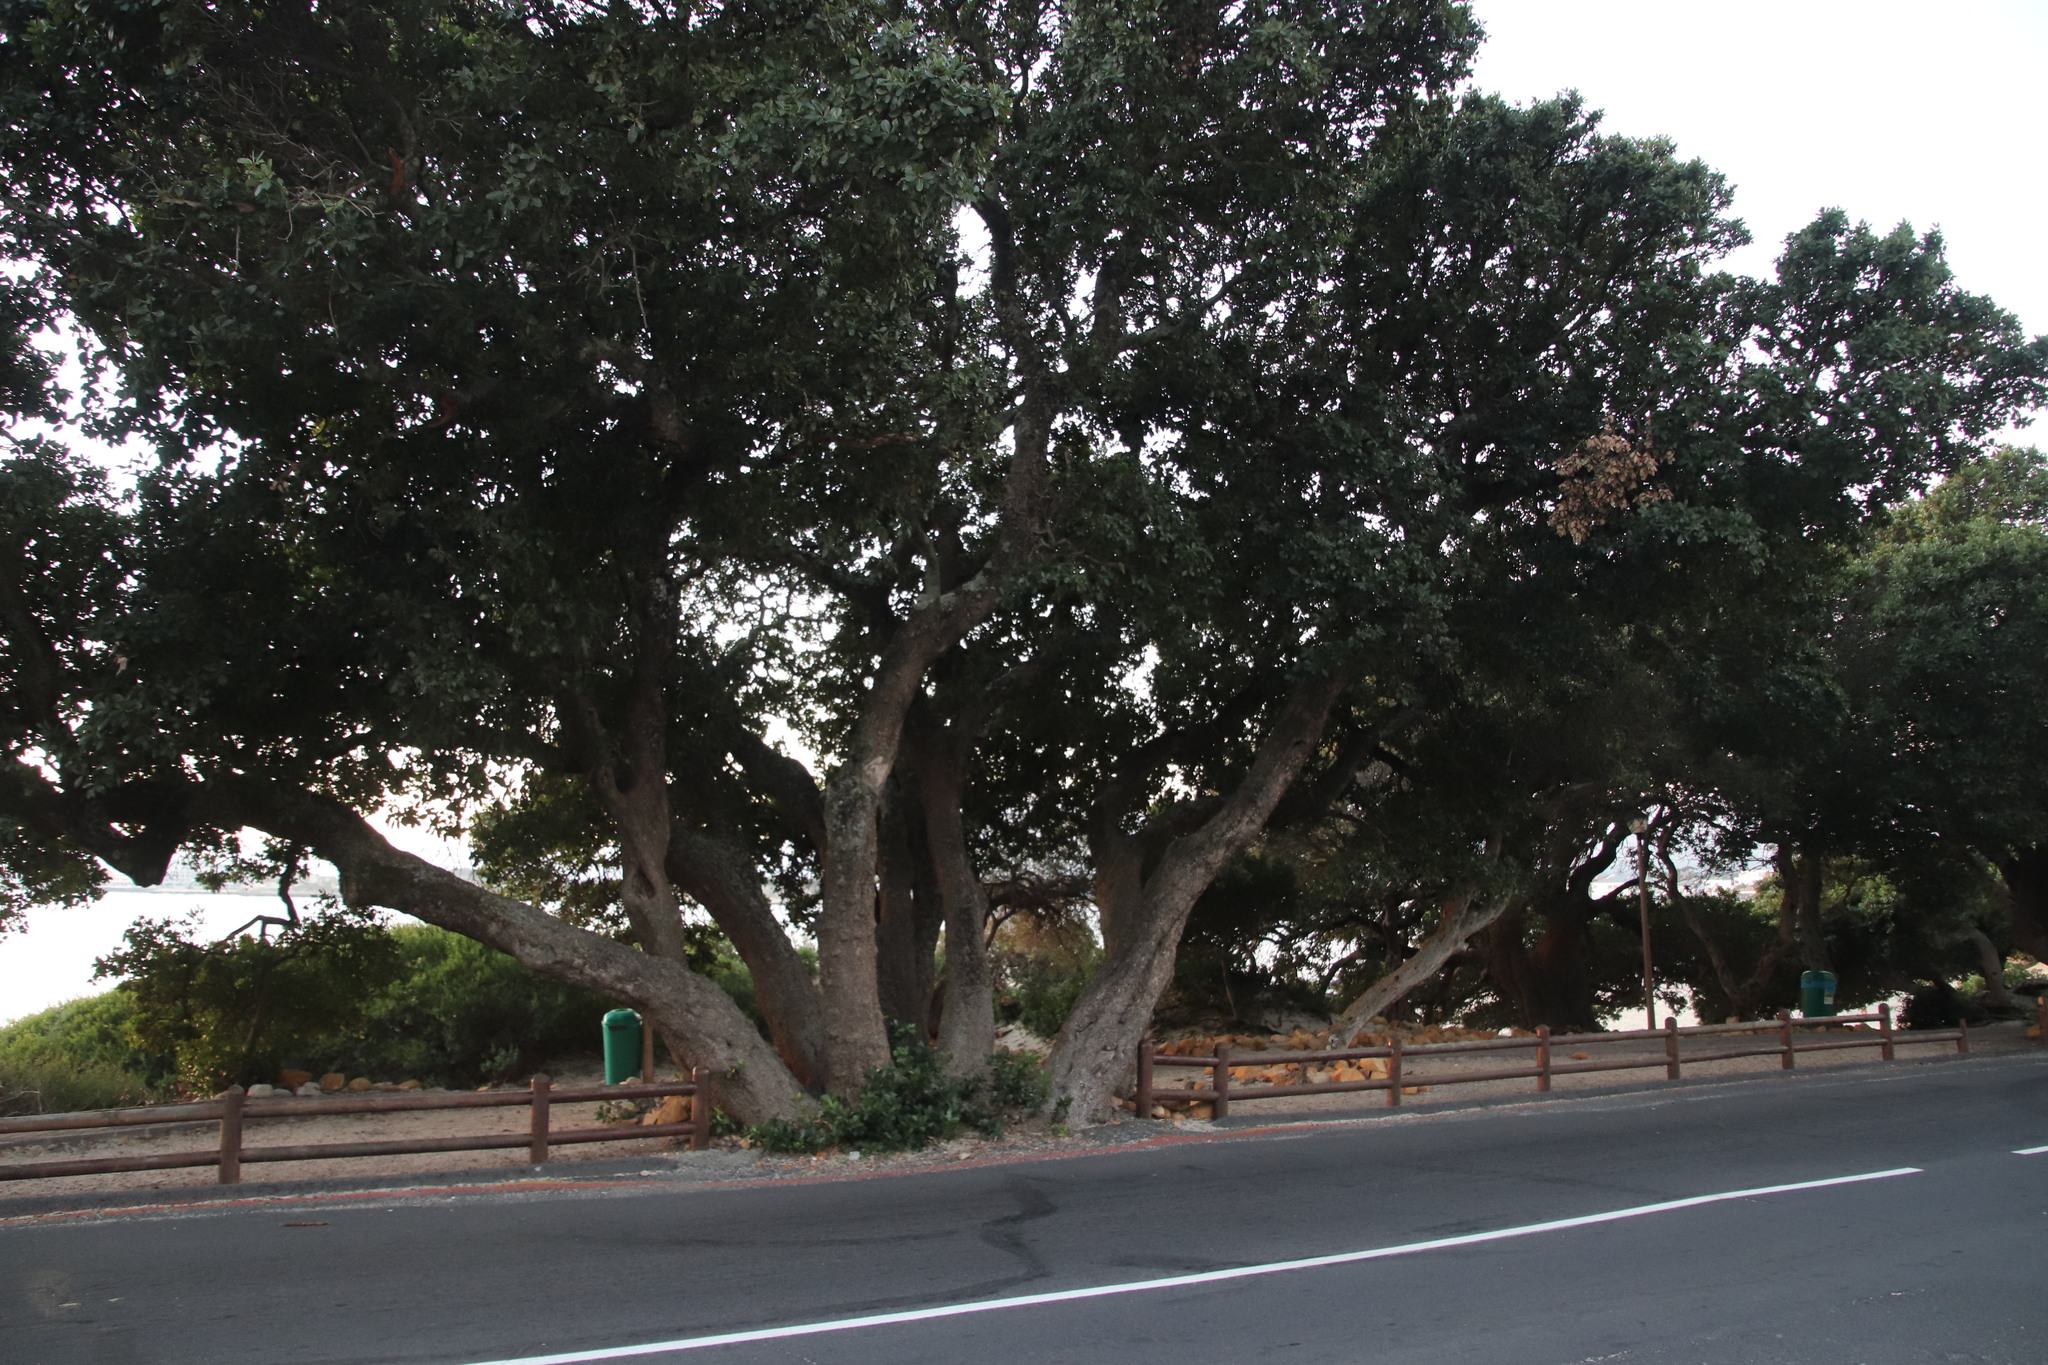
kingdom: Plantae
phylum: Tracheophyta
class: Magnoliopsida
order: Ericales
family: Sapotaceae
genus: Sideroxylon
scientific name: Sideroxylon inerme
